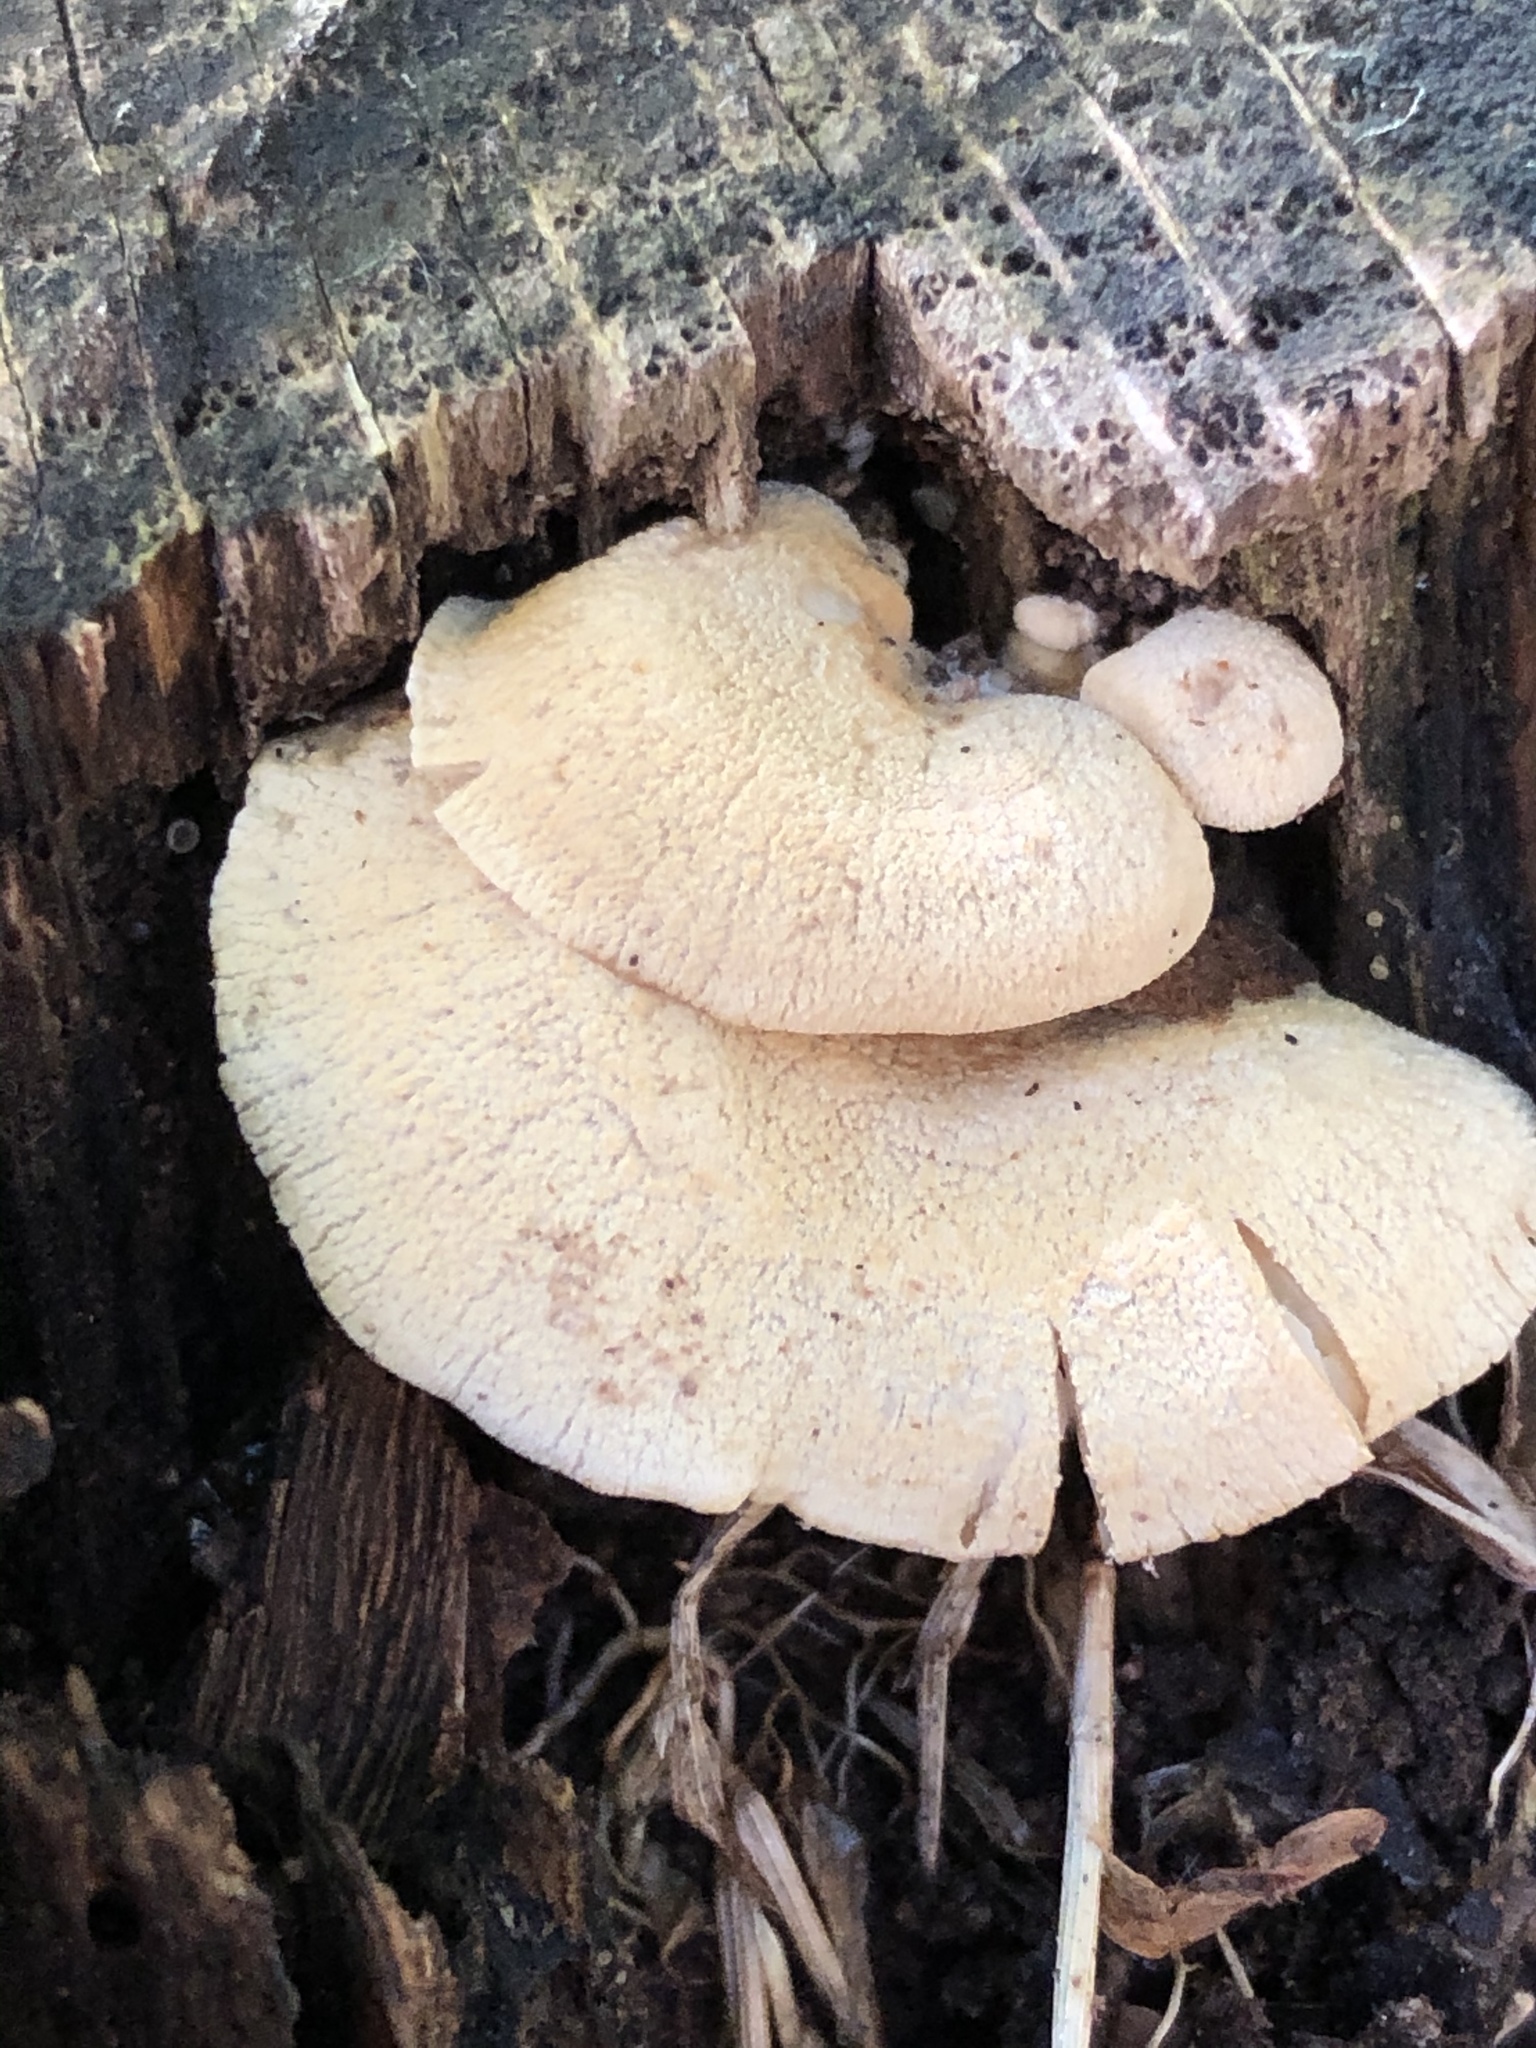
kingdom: Fungi
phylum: Basidiomycota
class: Agaricomycetes
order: Agaricales
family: Mycenaceae
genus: Panellus
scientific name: Panellus stipticus
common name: Bitter oysterling
